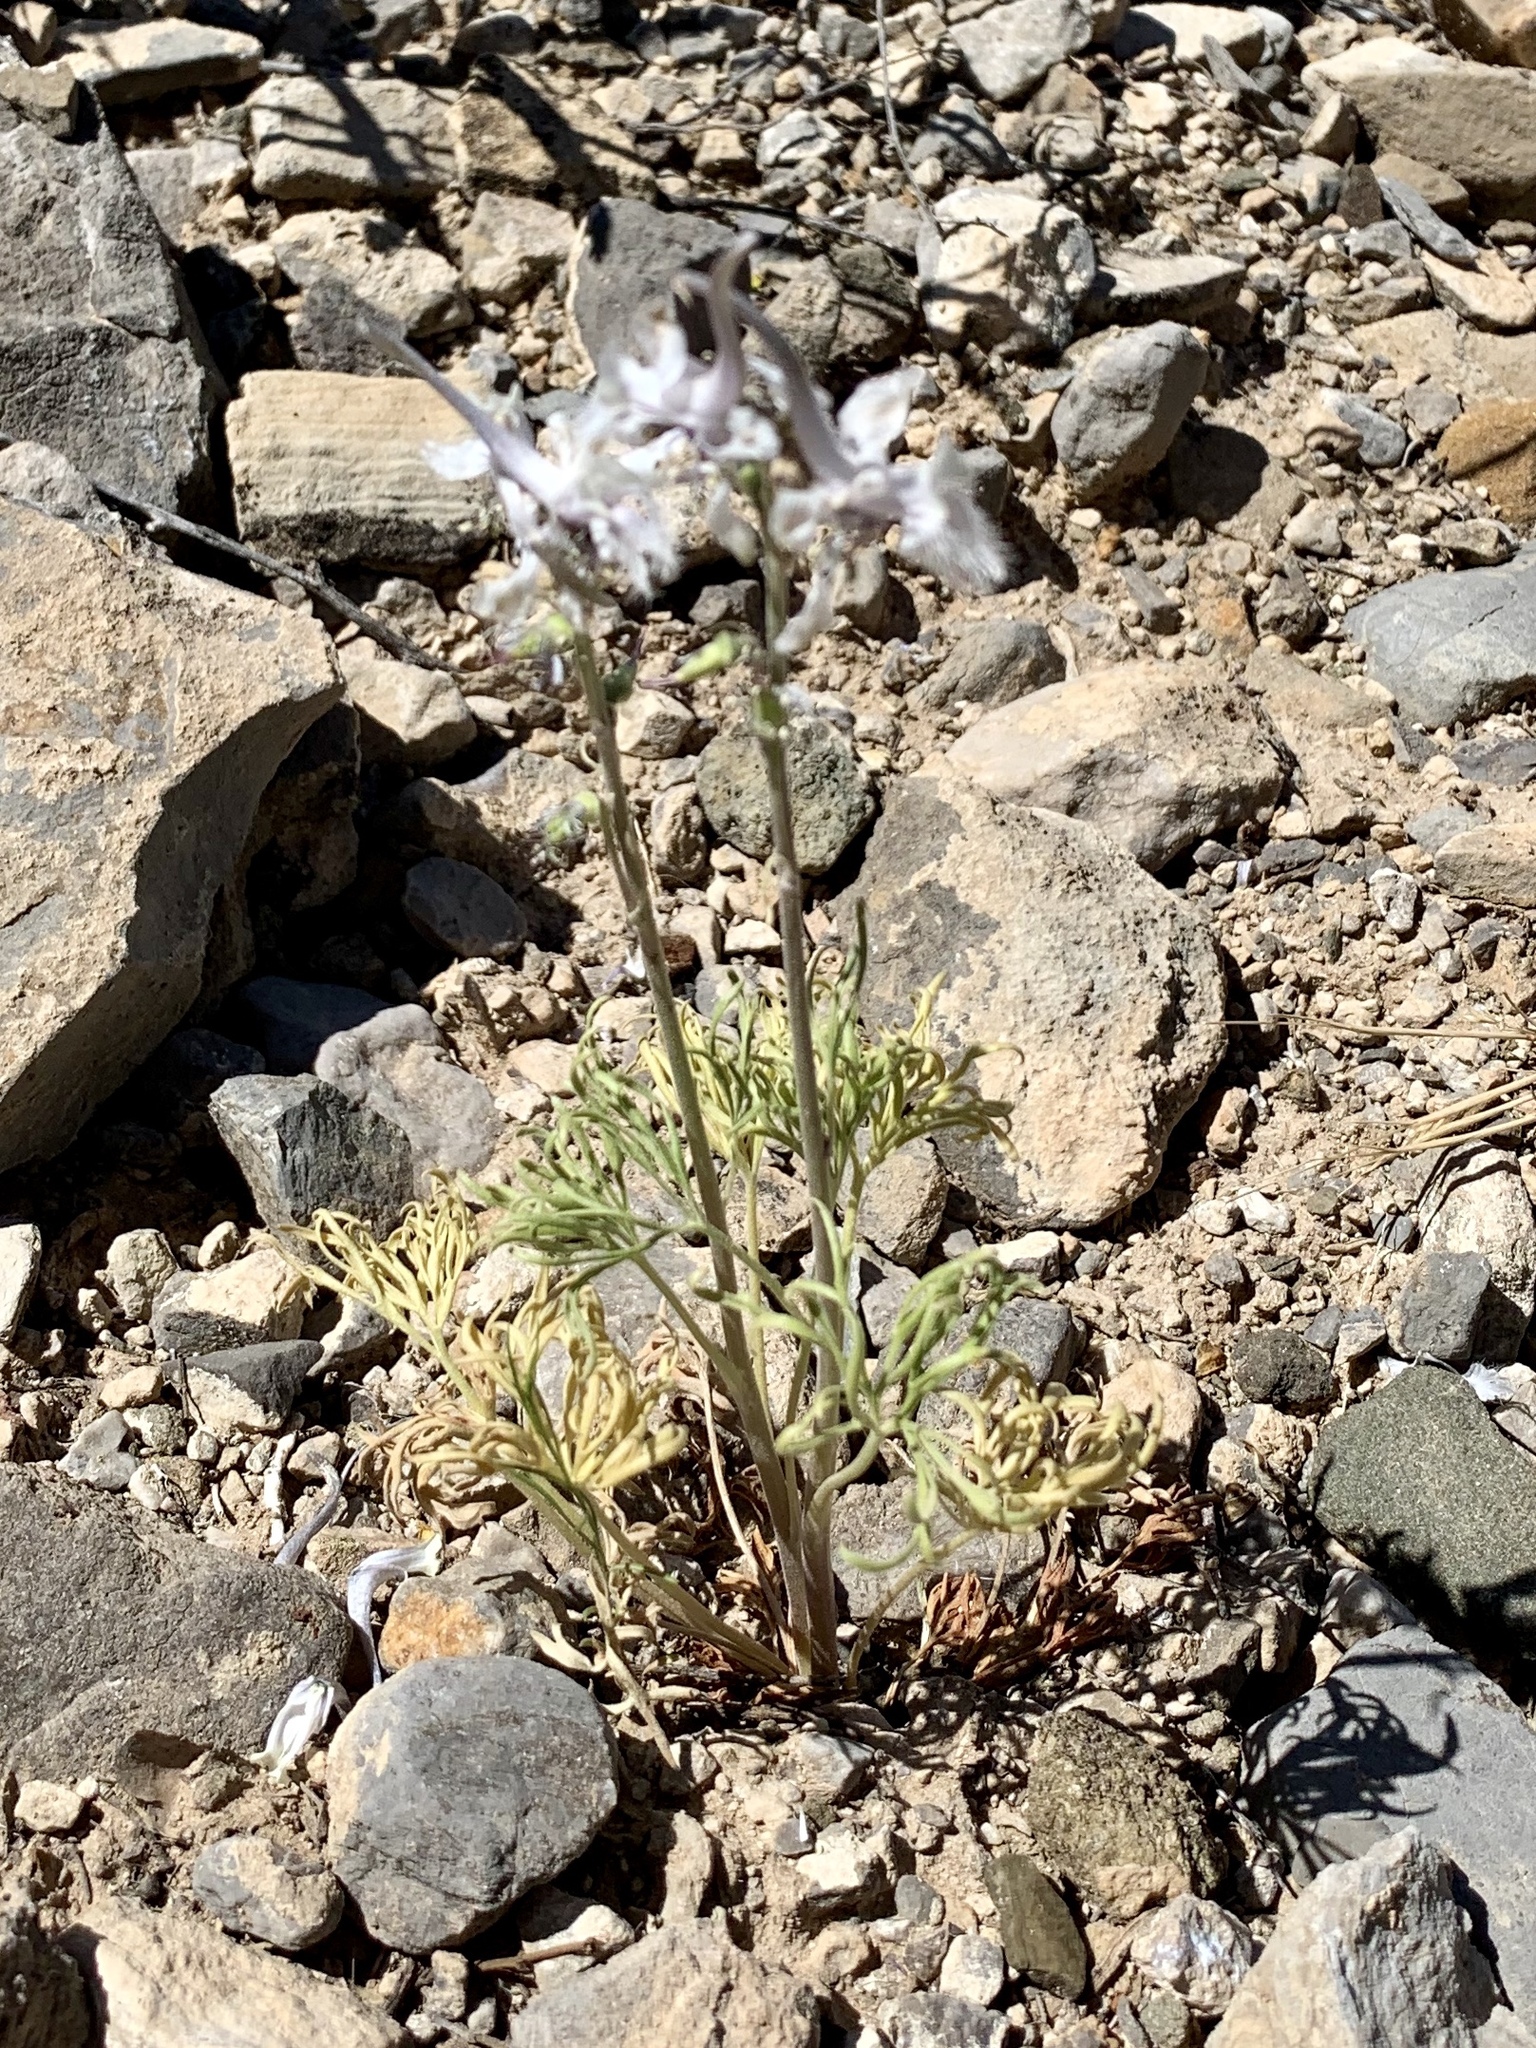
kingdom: Plantae
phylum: Tracheophyta
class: Magnoliopsida
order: Ranunculales
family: Ranunculaceae
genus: Delphinium
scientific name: Delphinium wootonii
